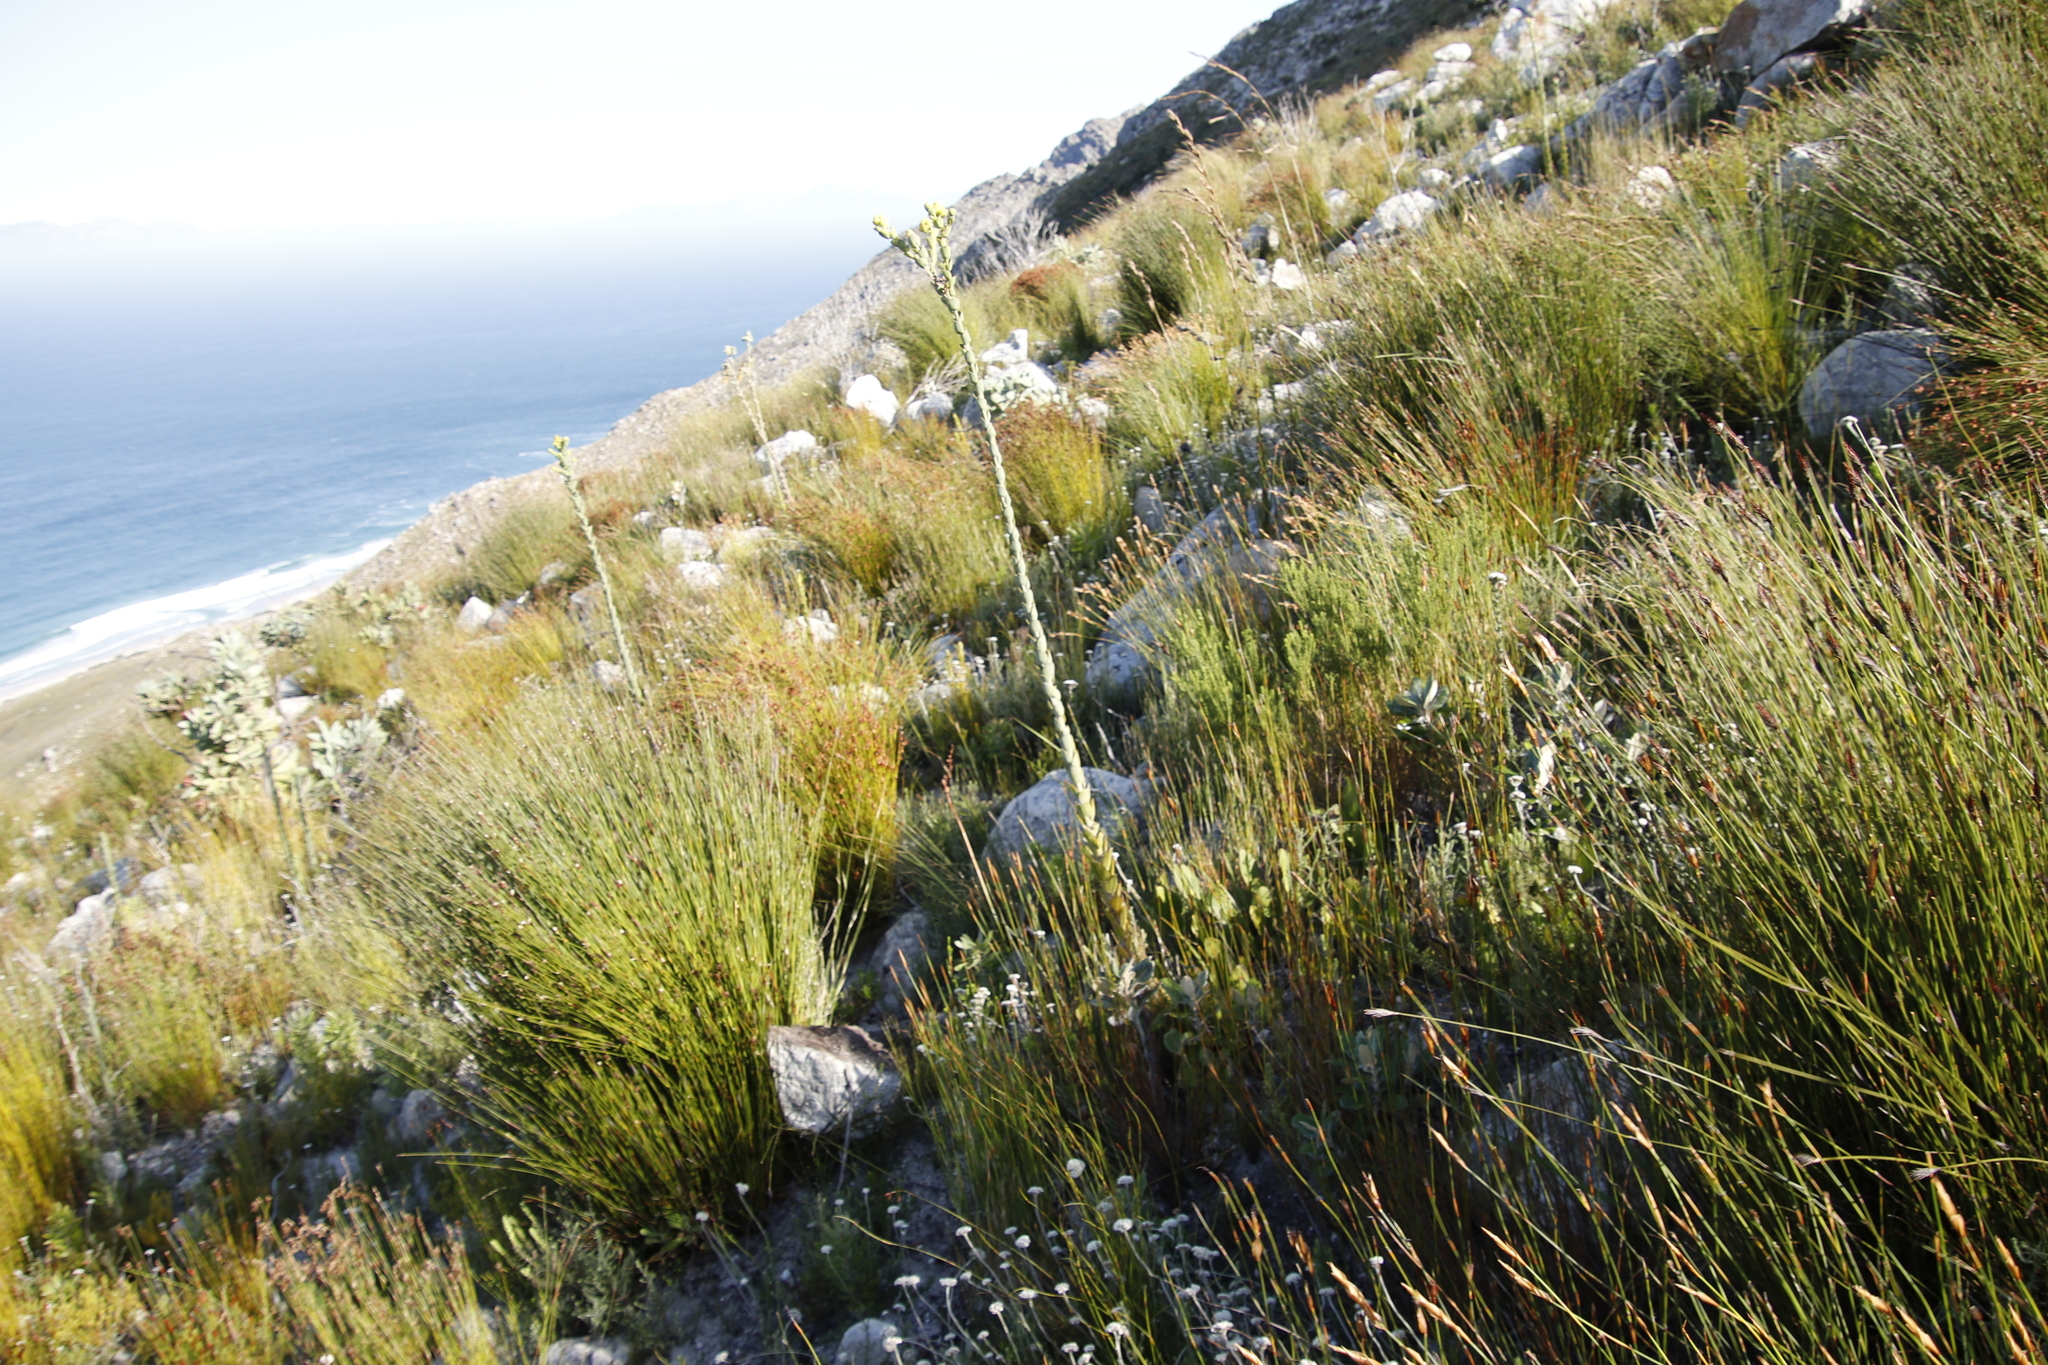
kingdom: Plantae
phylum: Tracheophyta
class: Magnoliopsida
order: Santalales
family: Thesiaceae
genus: Thesium
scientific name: Thesium euphorbioides
